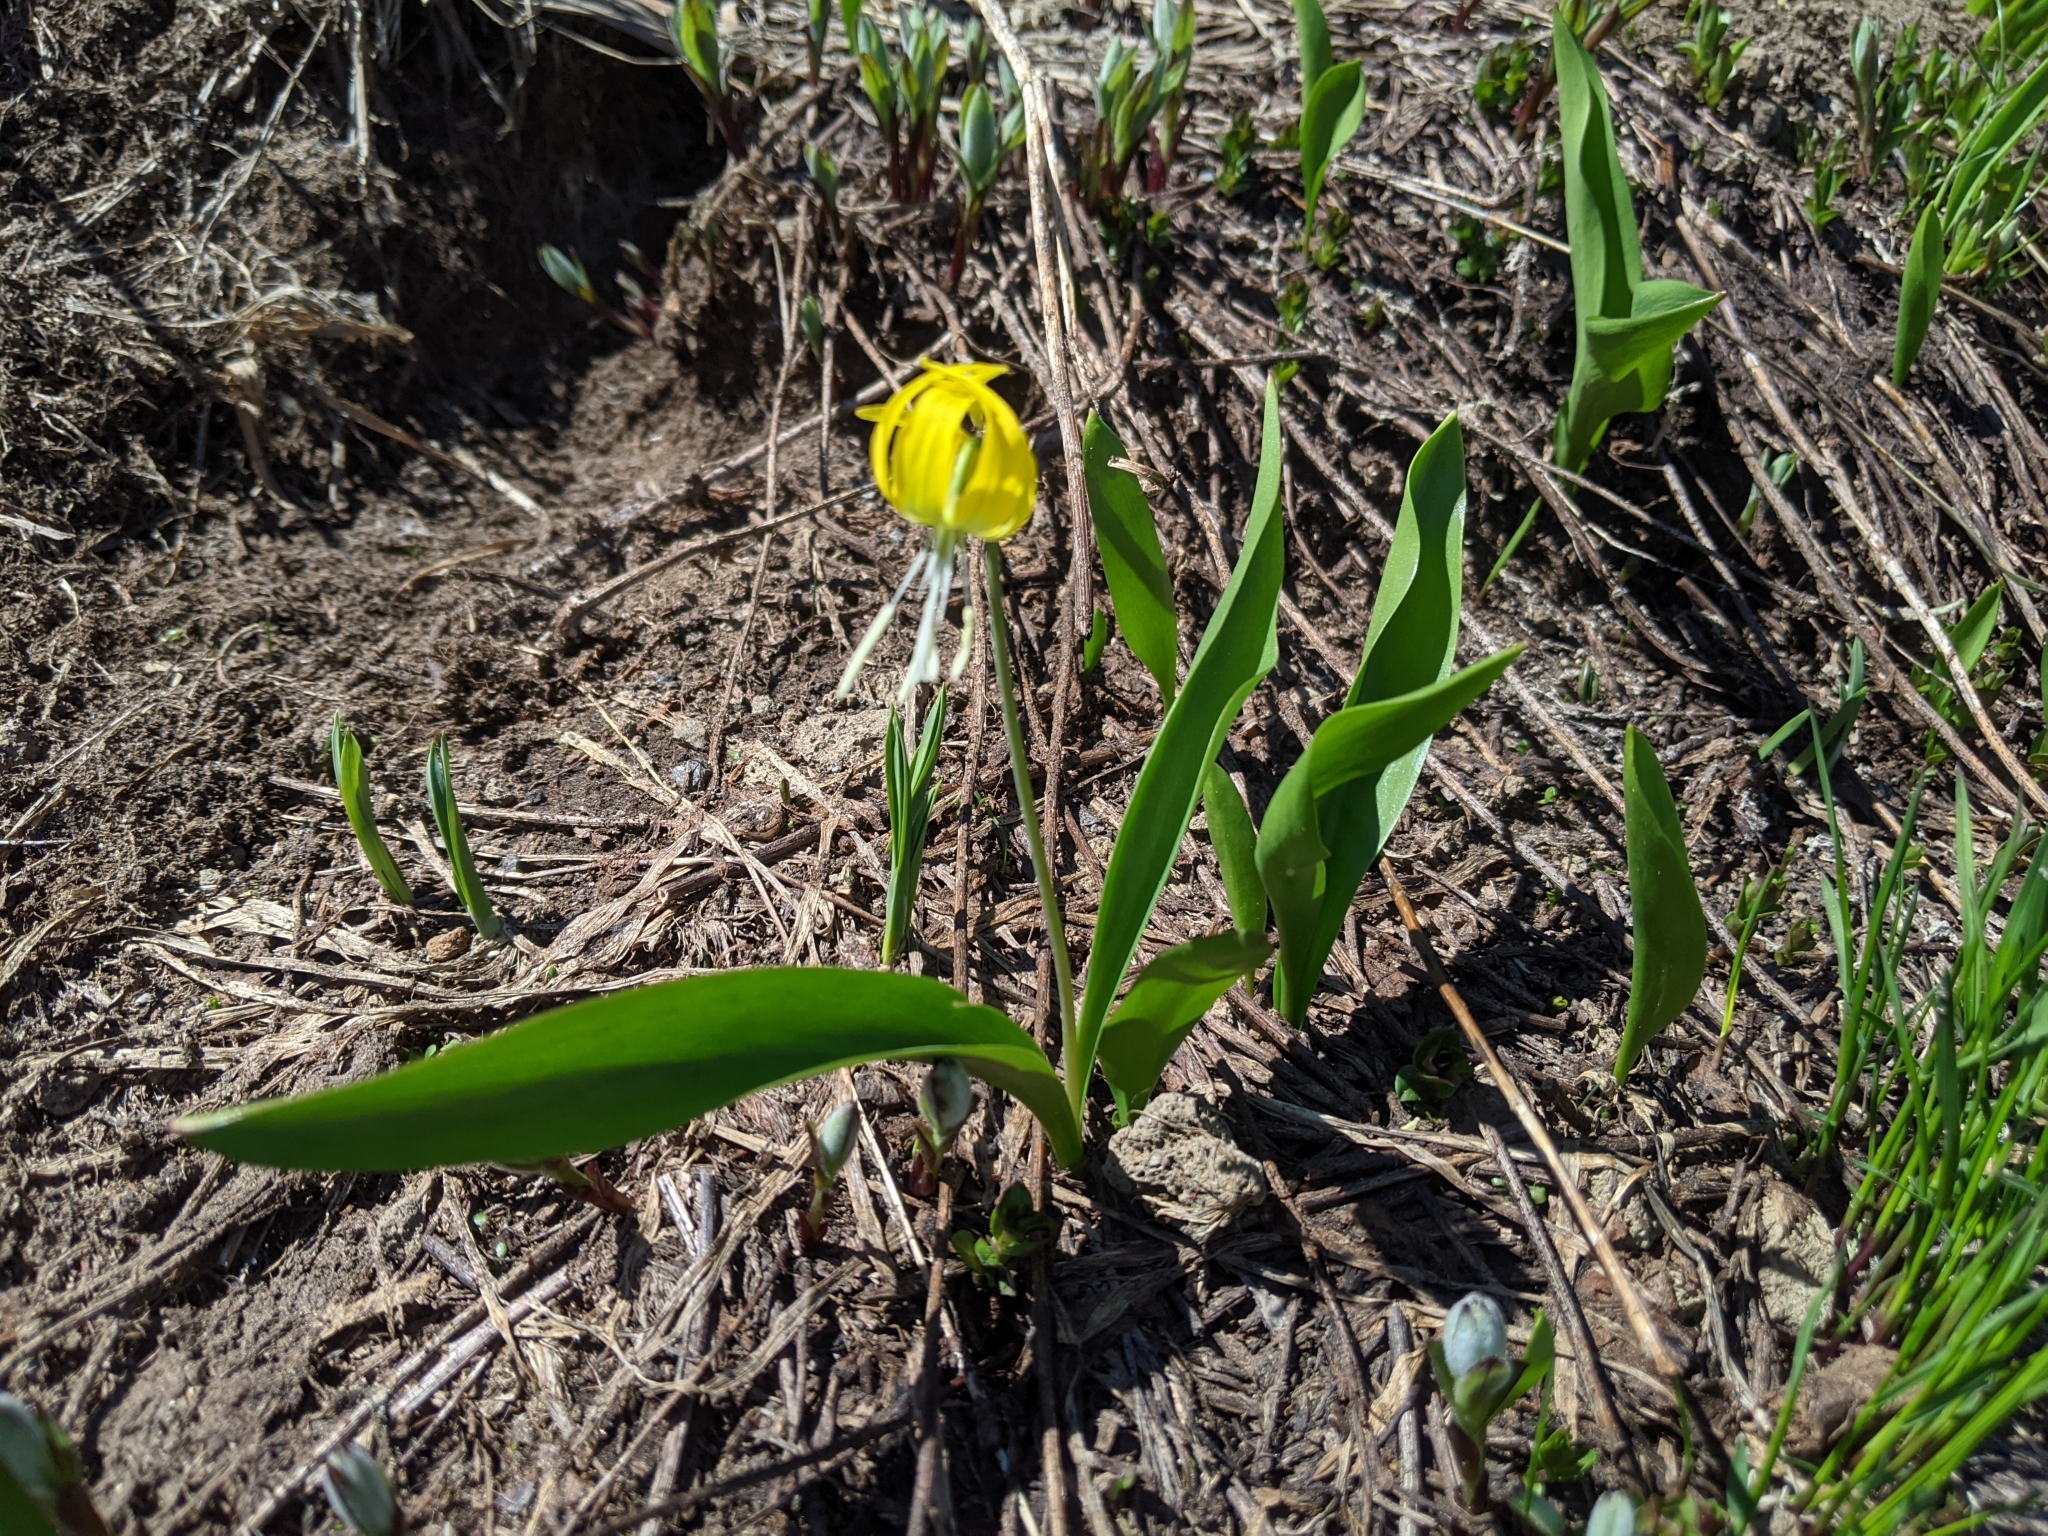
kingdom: Plantae
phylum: Tracheophyta
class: Liliopsida
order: Liliales
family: Liliaceae
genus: Erythronium
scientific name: Erythronium grandiflorum
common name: Avalanche-lily
